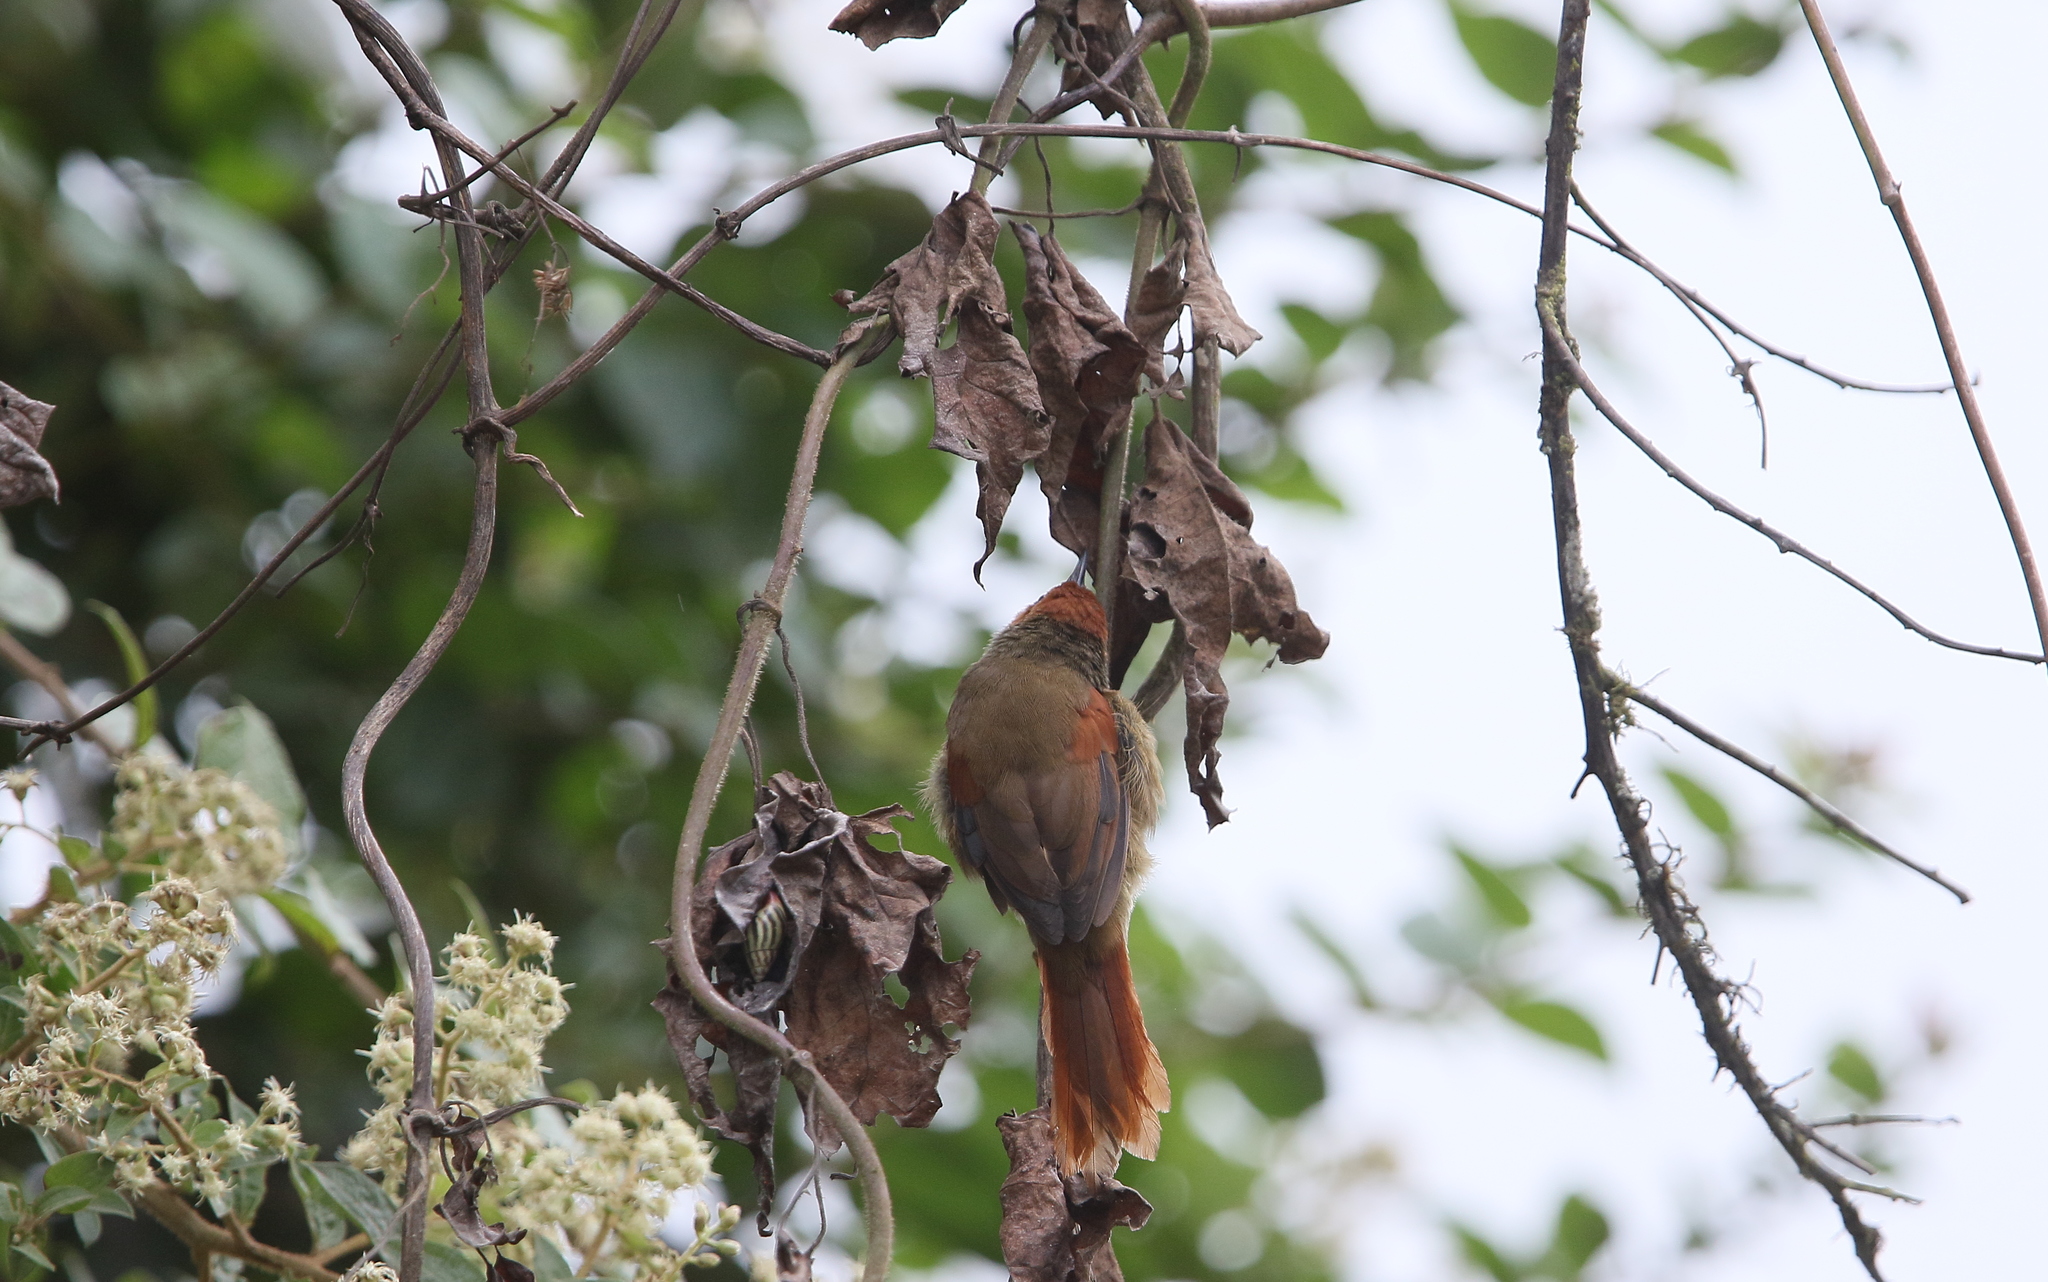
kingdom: Animalia
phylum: Chordata
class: Aves
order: Passeriformes
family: Furnariidae
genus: Cranioleuca
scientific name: Cranioleuca erythrops
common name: Red-faced spinetail
